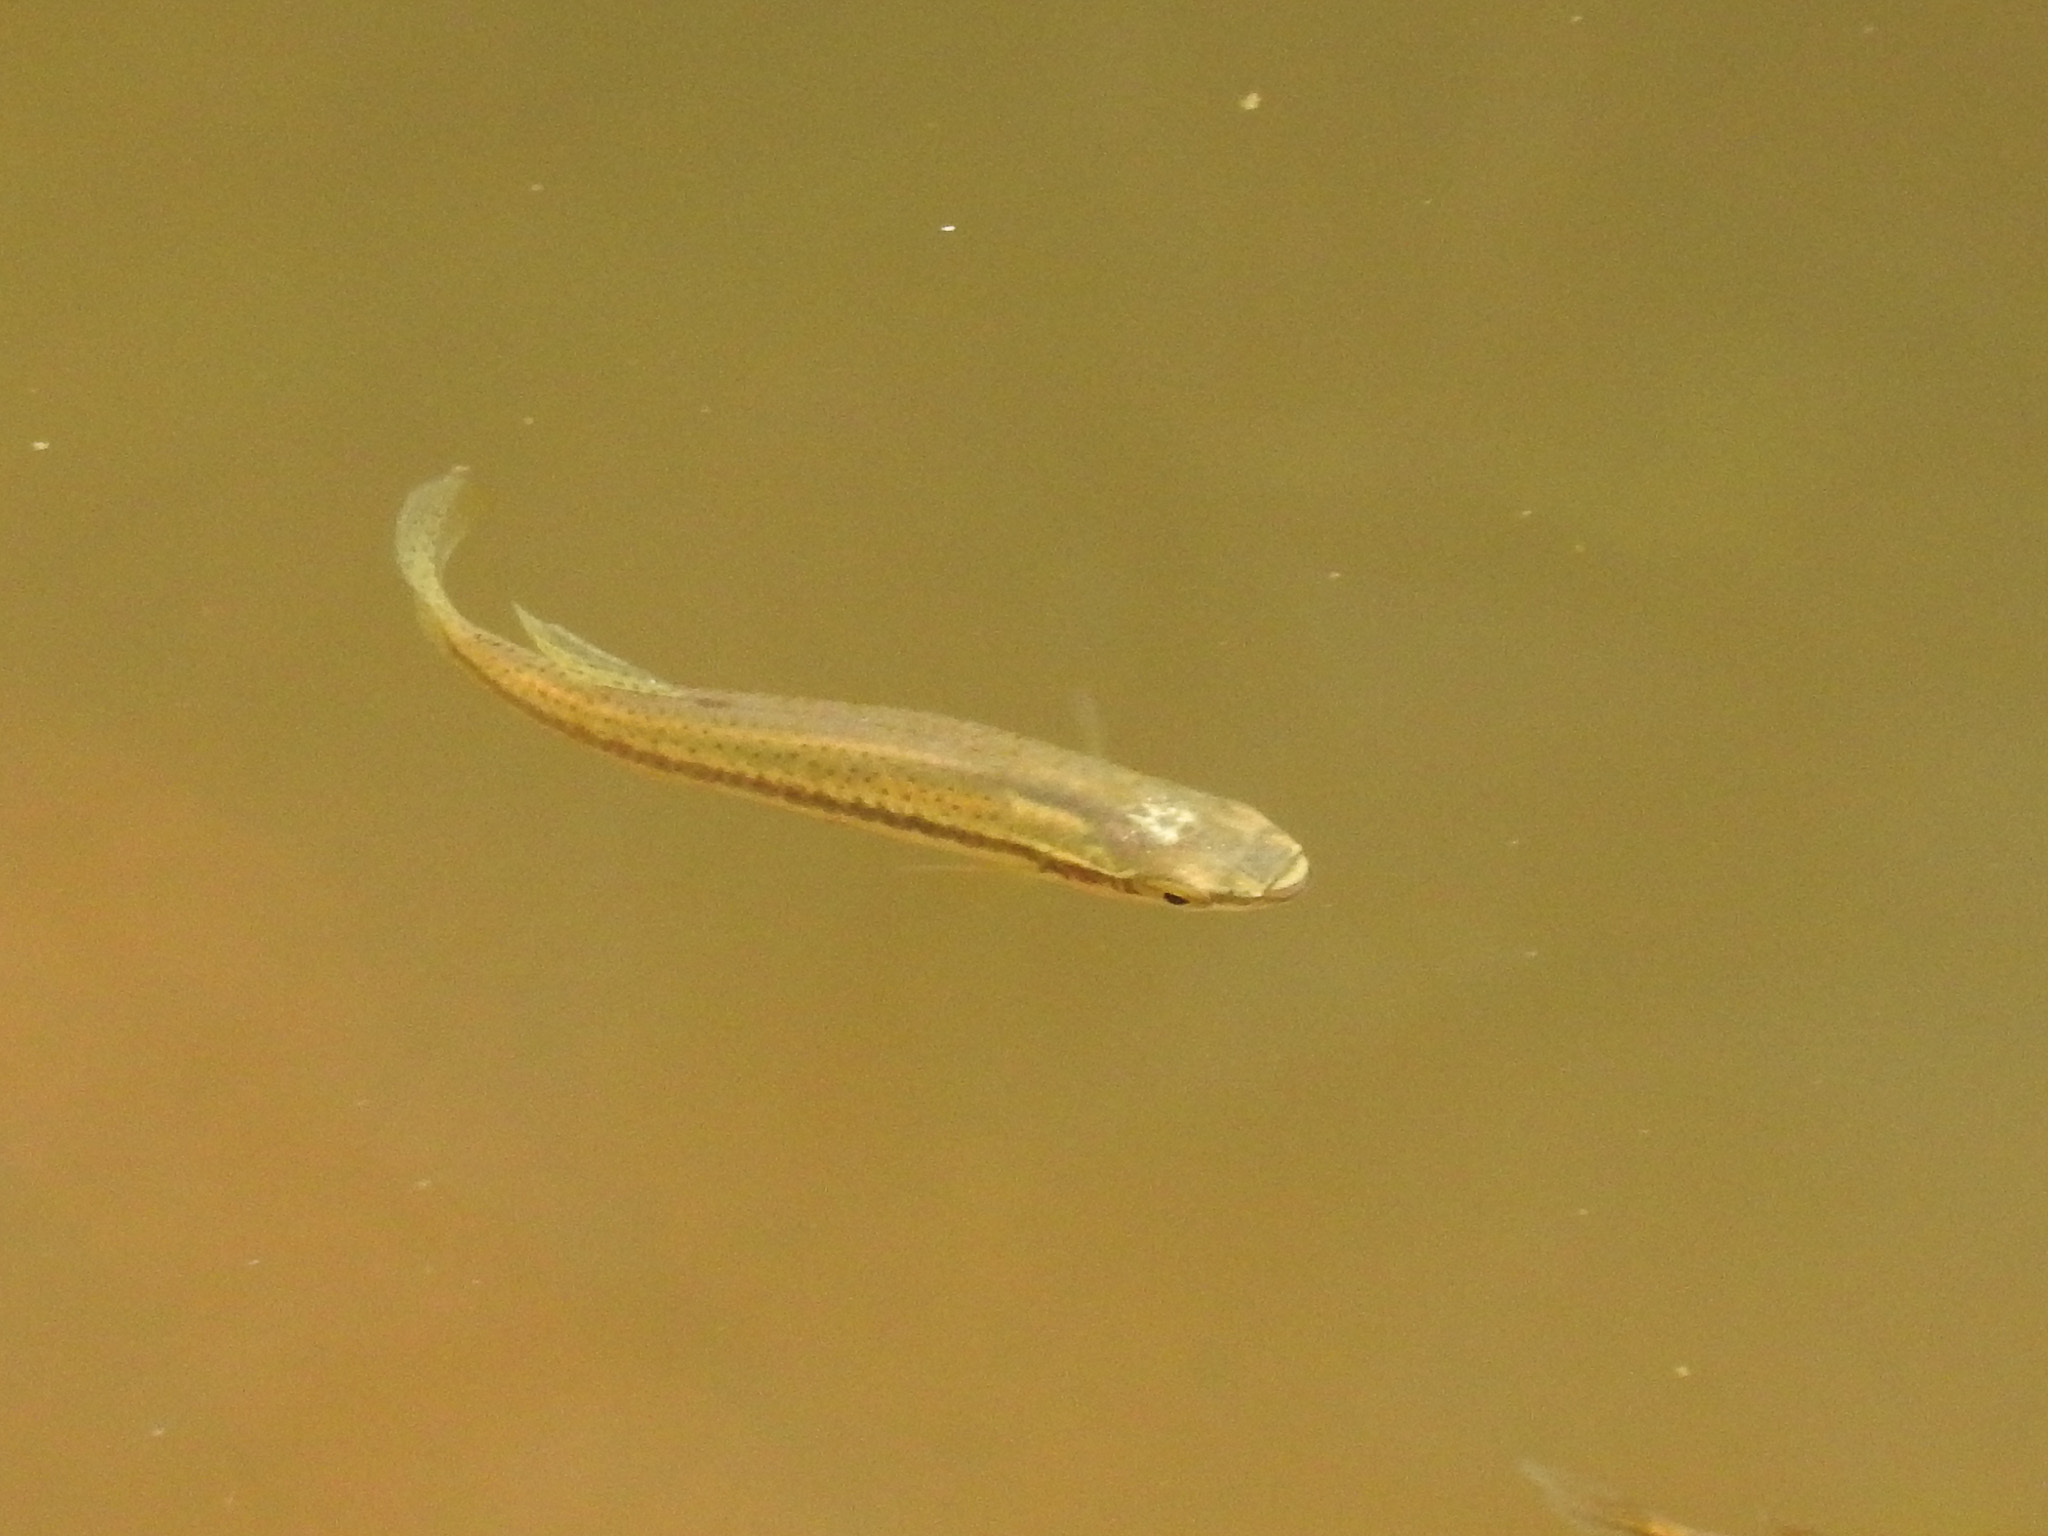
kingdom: Animalia
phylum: Chordata
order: Cyprinodontiformes
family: Fundulidae
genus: Fundulus
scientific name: Fundulus olivaceus
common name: Blackspotted topminnow
